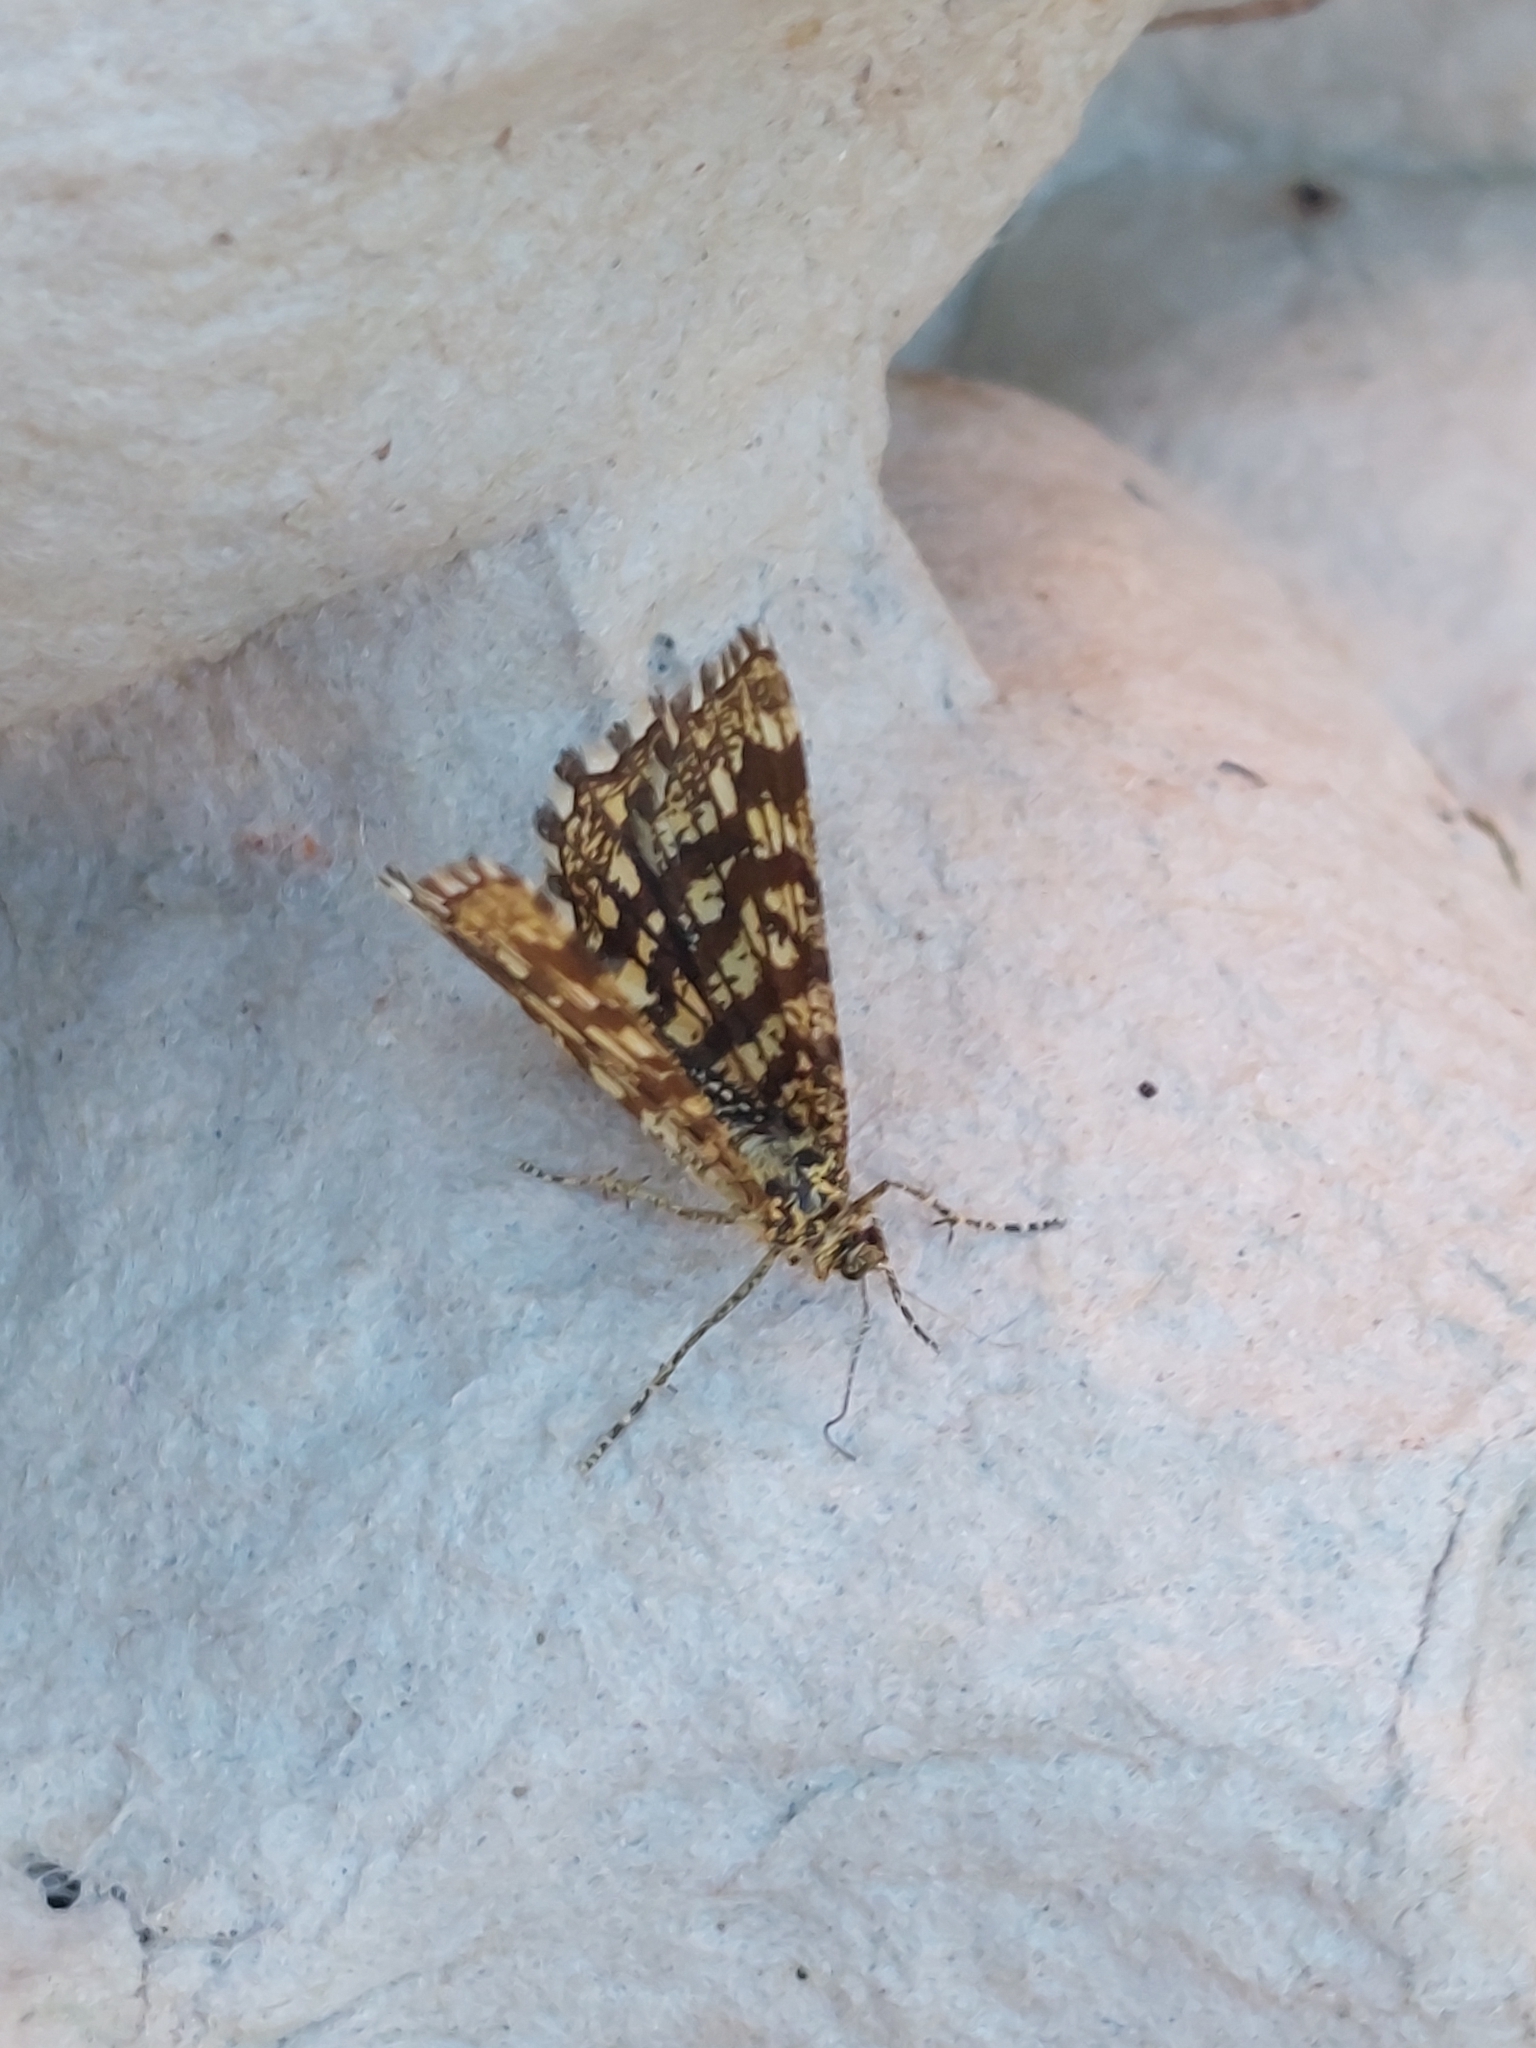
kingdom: Animalia
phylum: Arthropoda
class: Insecta
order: Lepidoptera
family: Geometridae
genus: Chiasmia
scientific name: Chiasmia clathrata
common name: Latticed heath
